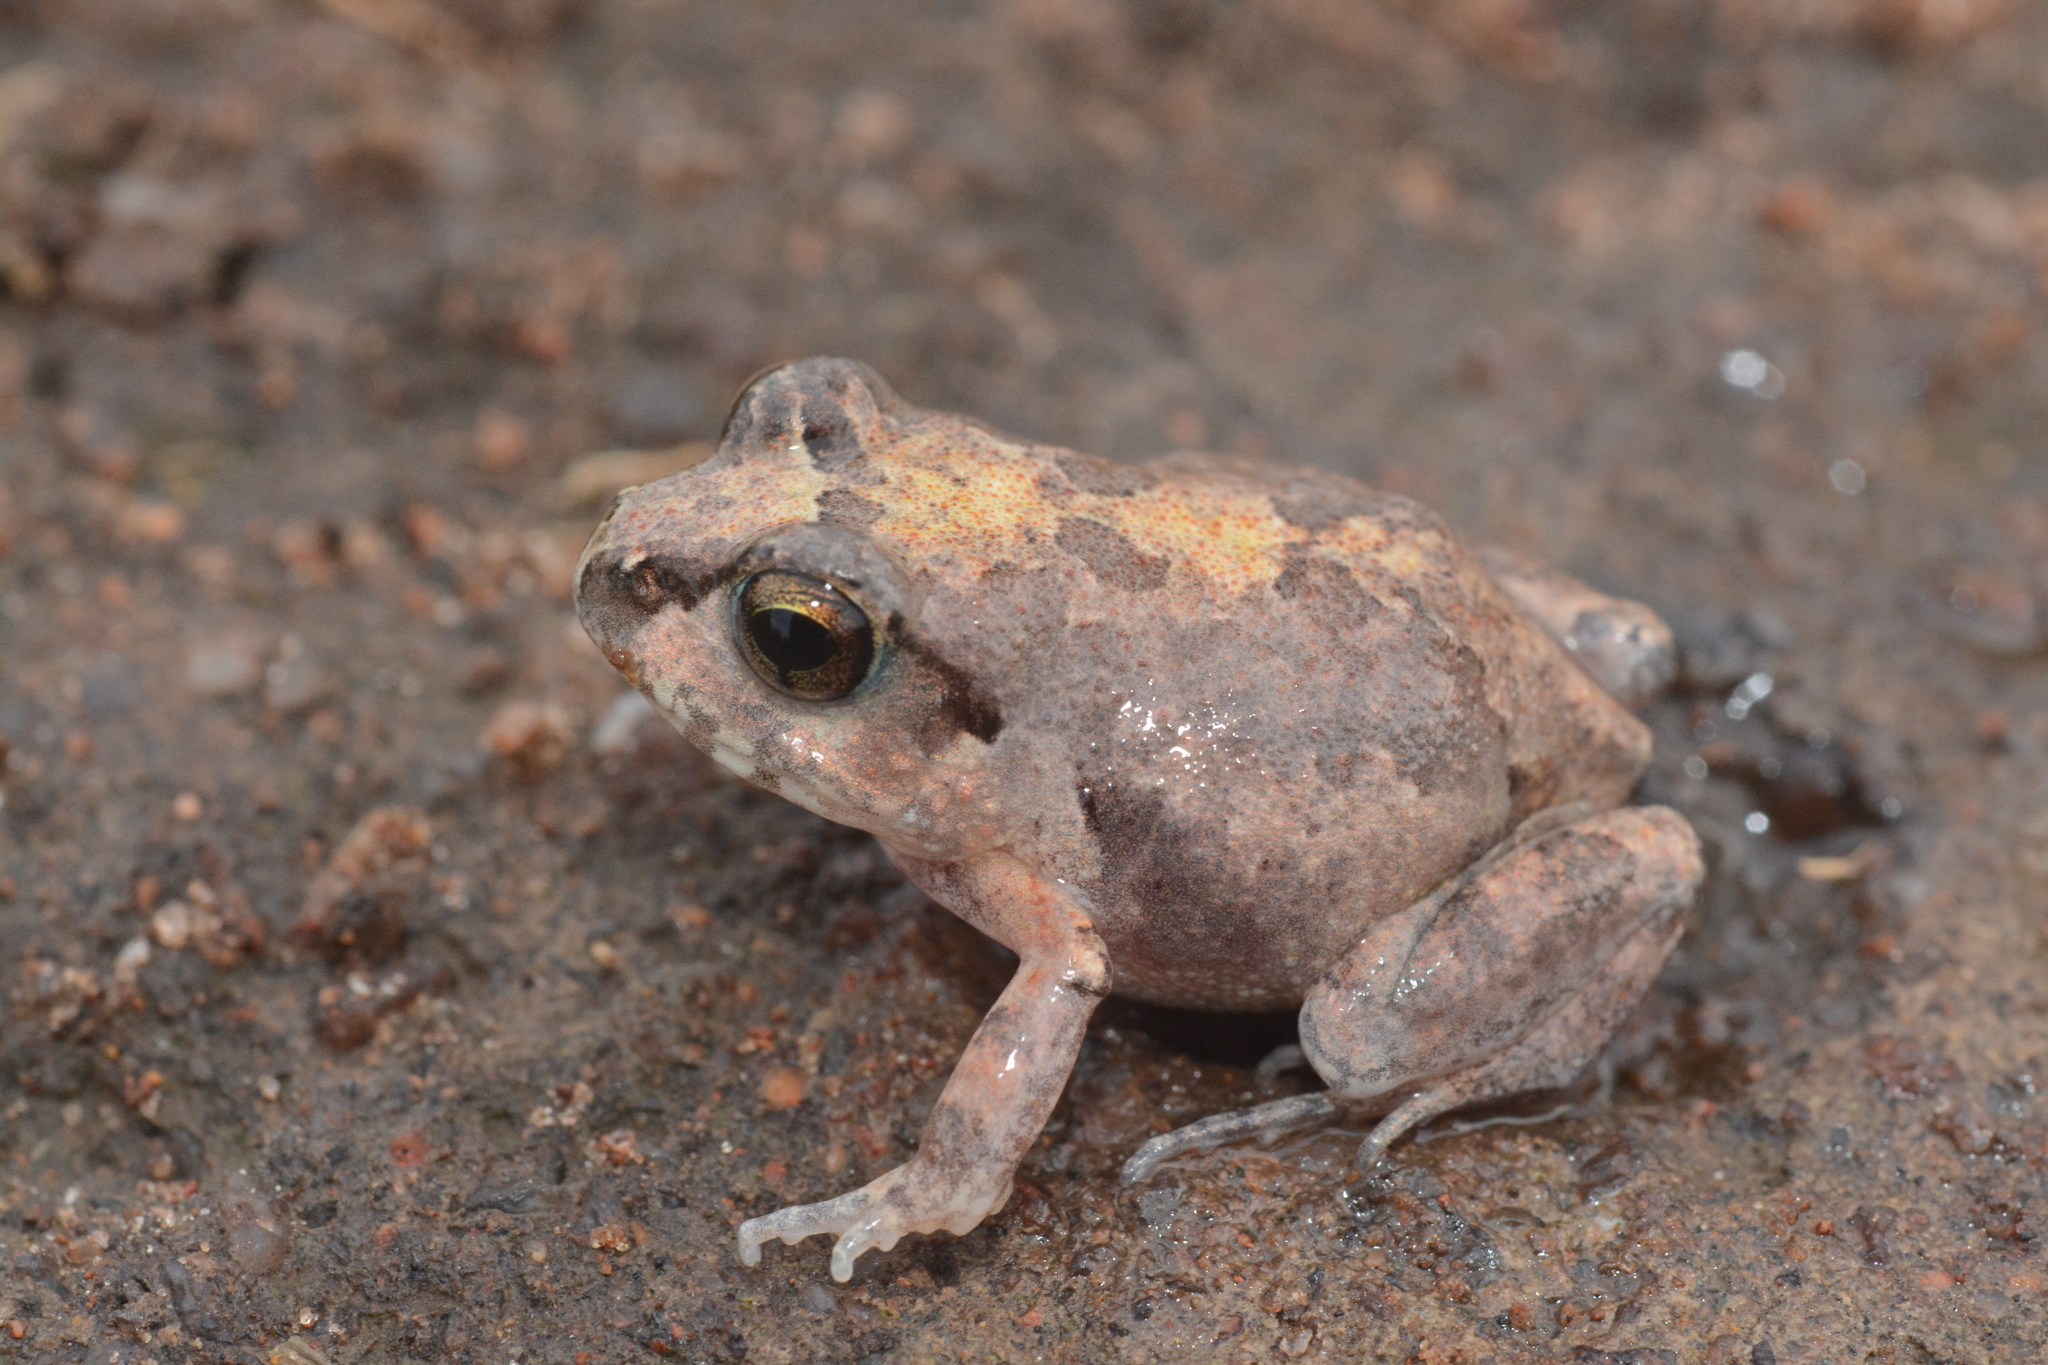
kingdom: Animalia
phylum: Chordata
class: Amphibia
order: Anura
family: Arthroleptidae
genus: Arthroleptis
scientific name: Arthroleptis stenodactylus
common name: Dune squeaker
